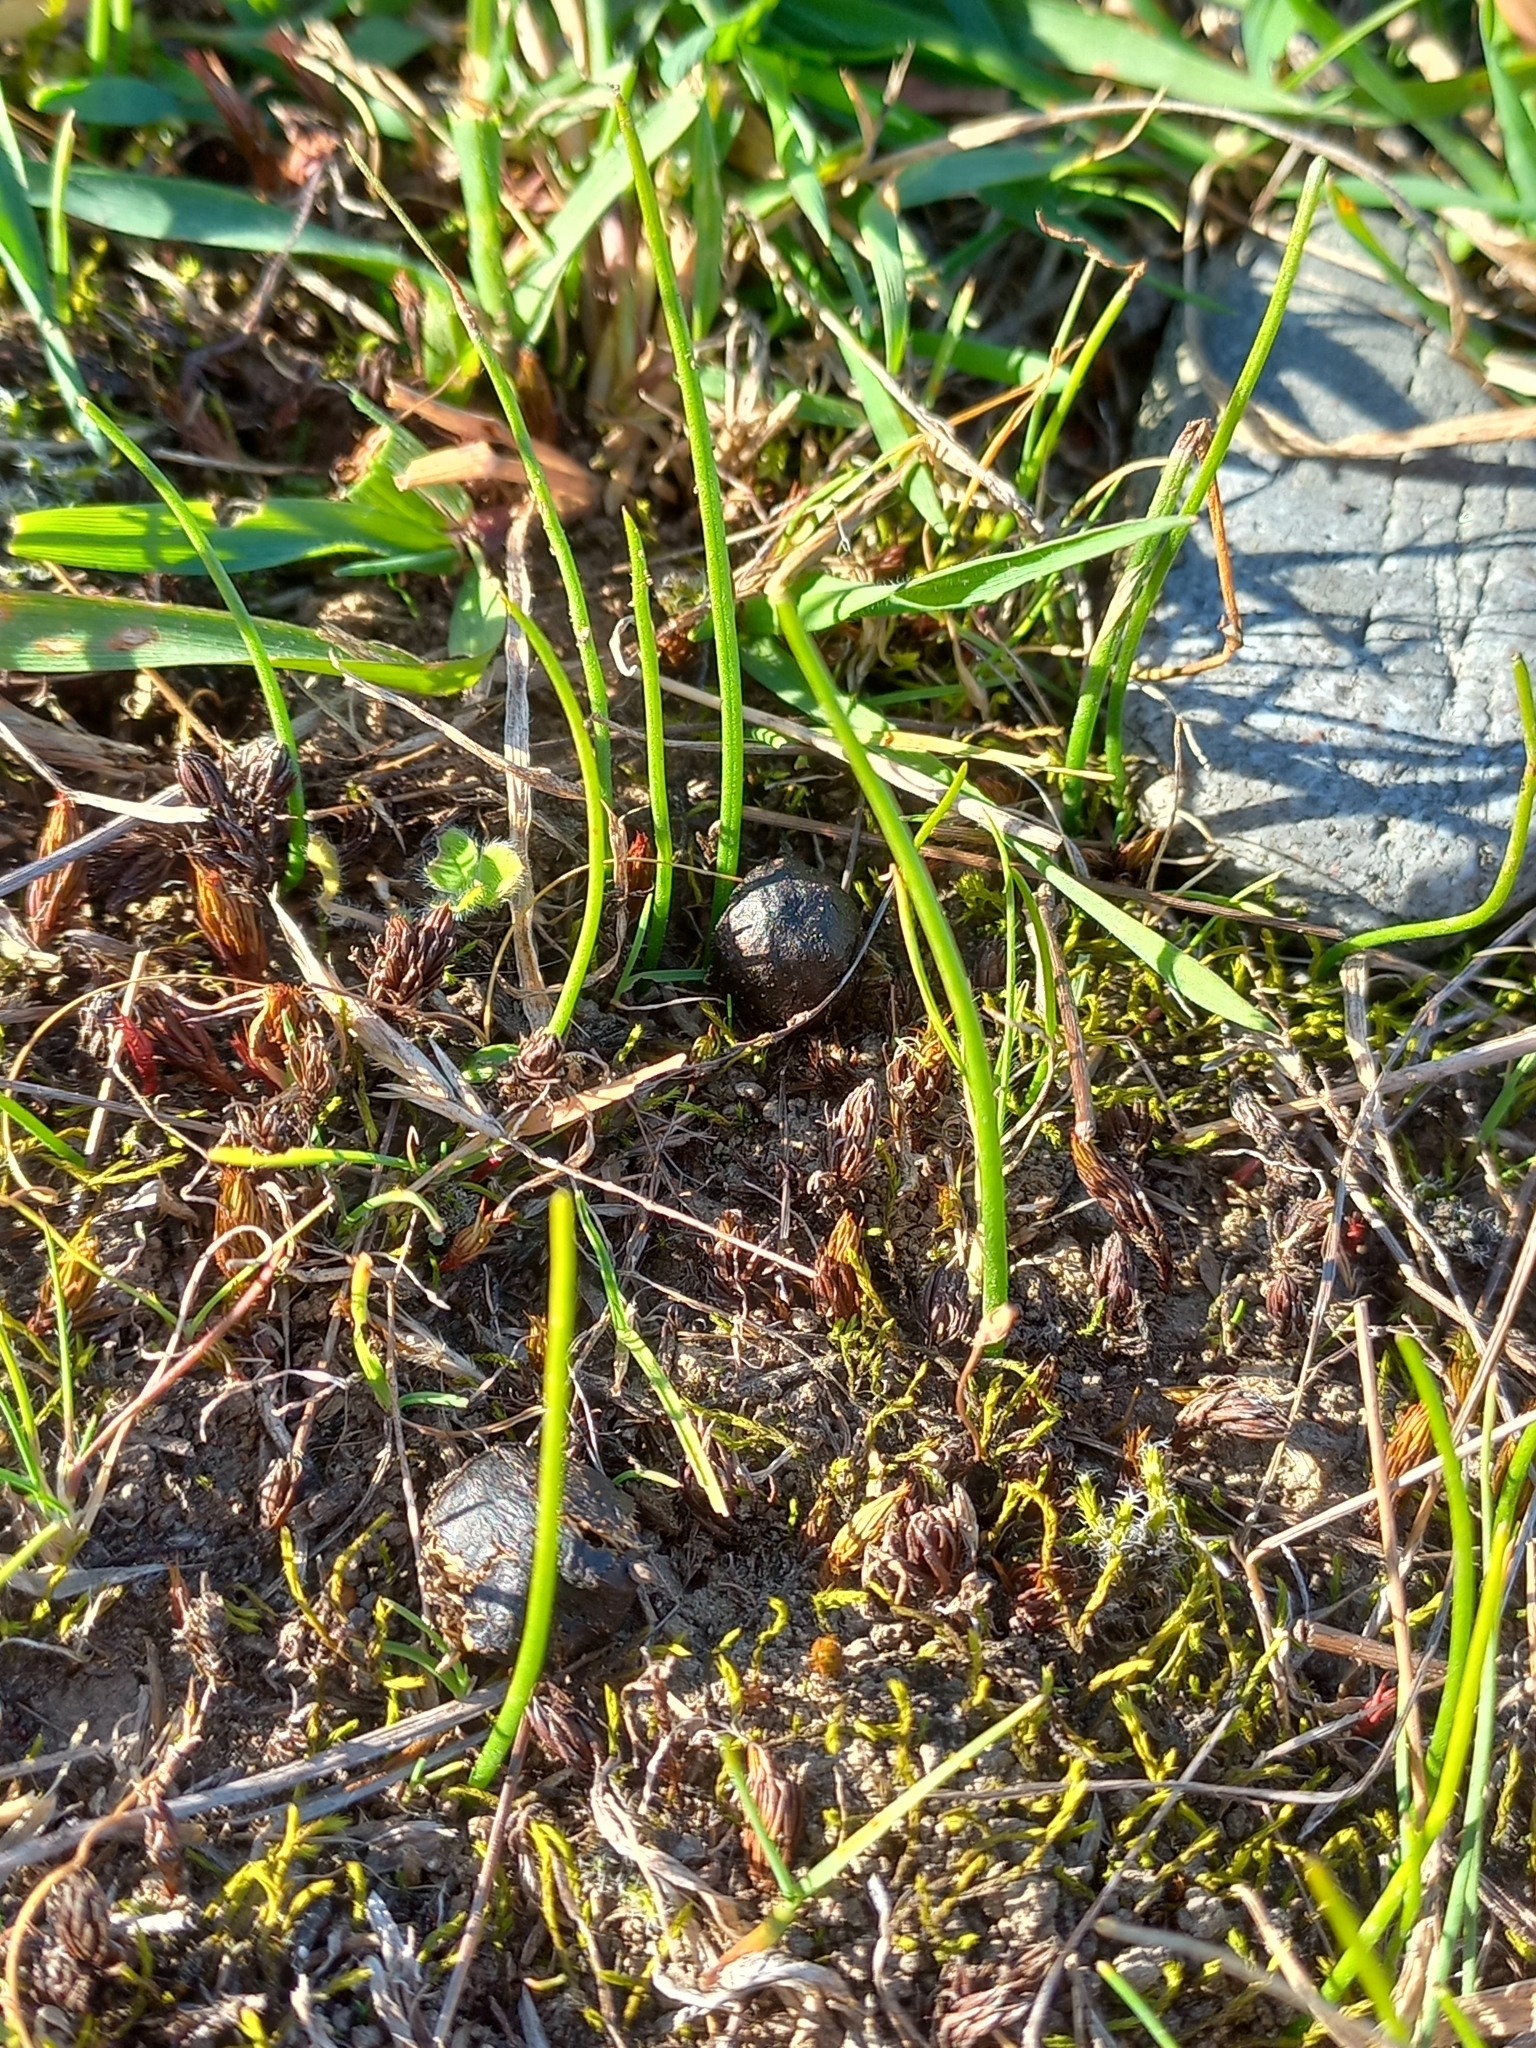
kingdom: Plantae
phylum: Tracheophyta
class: Liliopsida
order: Asparagales
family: Orchidaceae
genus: Microtis
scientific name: Microtis unifolia
